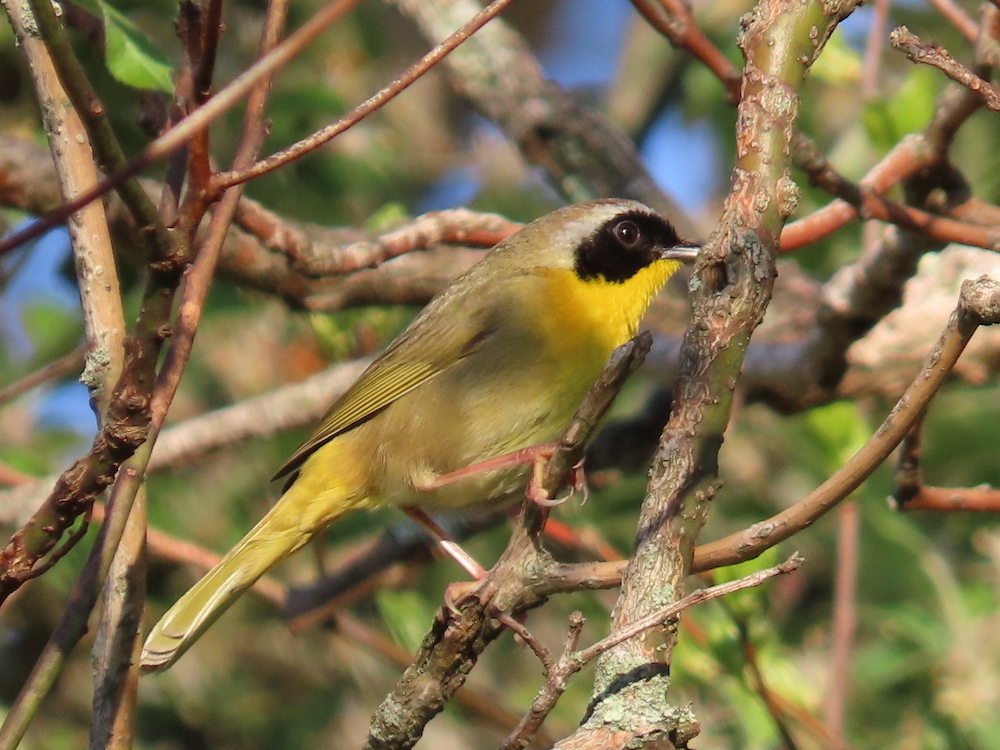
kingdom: Animalia
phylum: Chordata
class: Aves
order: Passeriformes
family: Parulidae
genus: Geothlypis
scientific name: Geothlypis trichas
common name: Common yellowthroat
